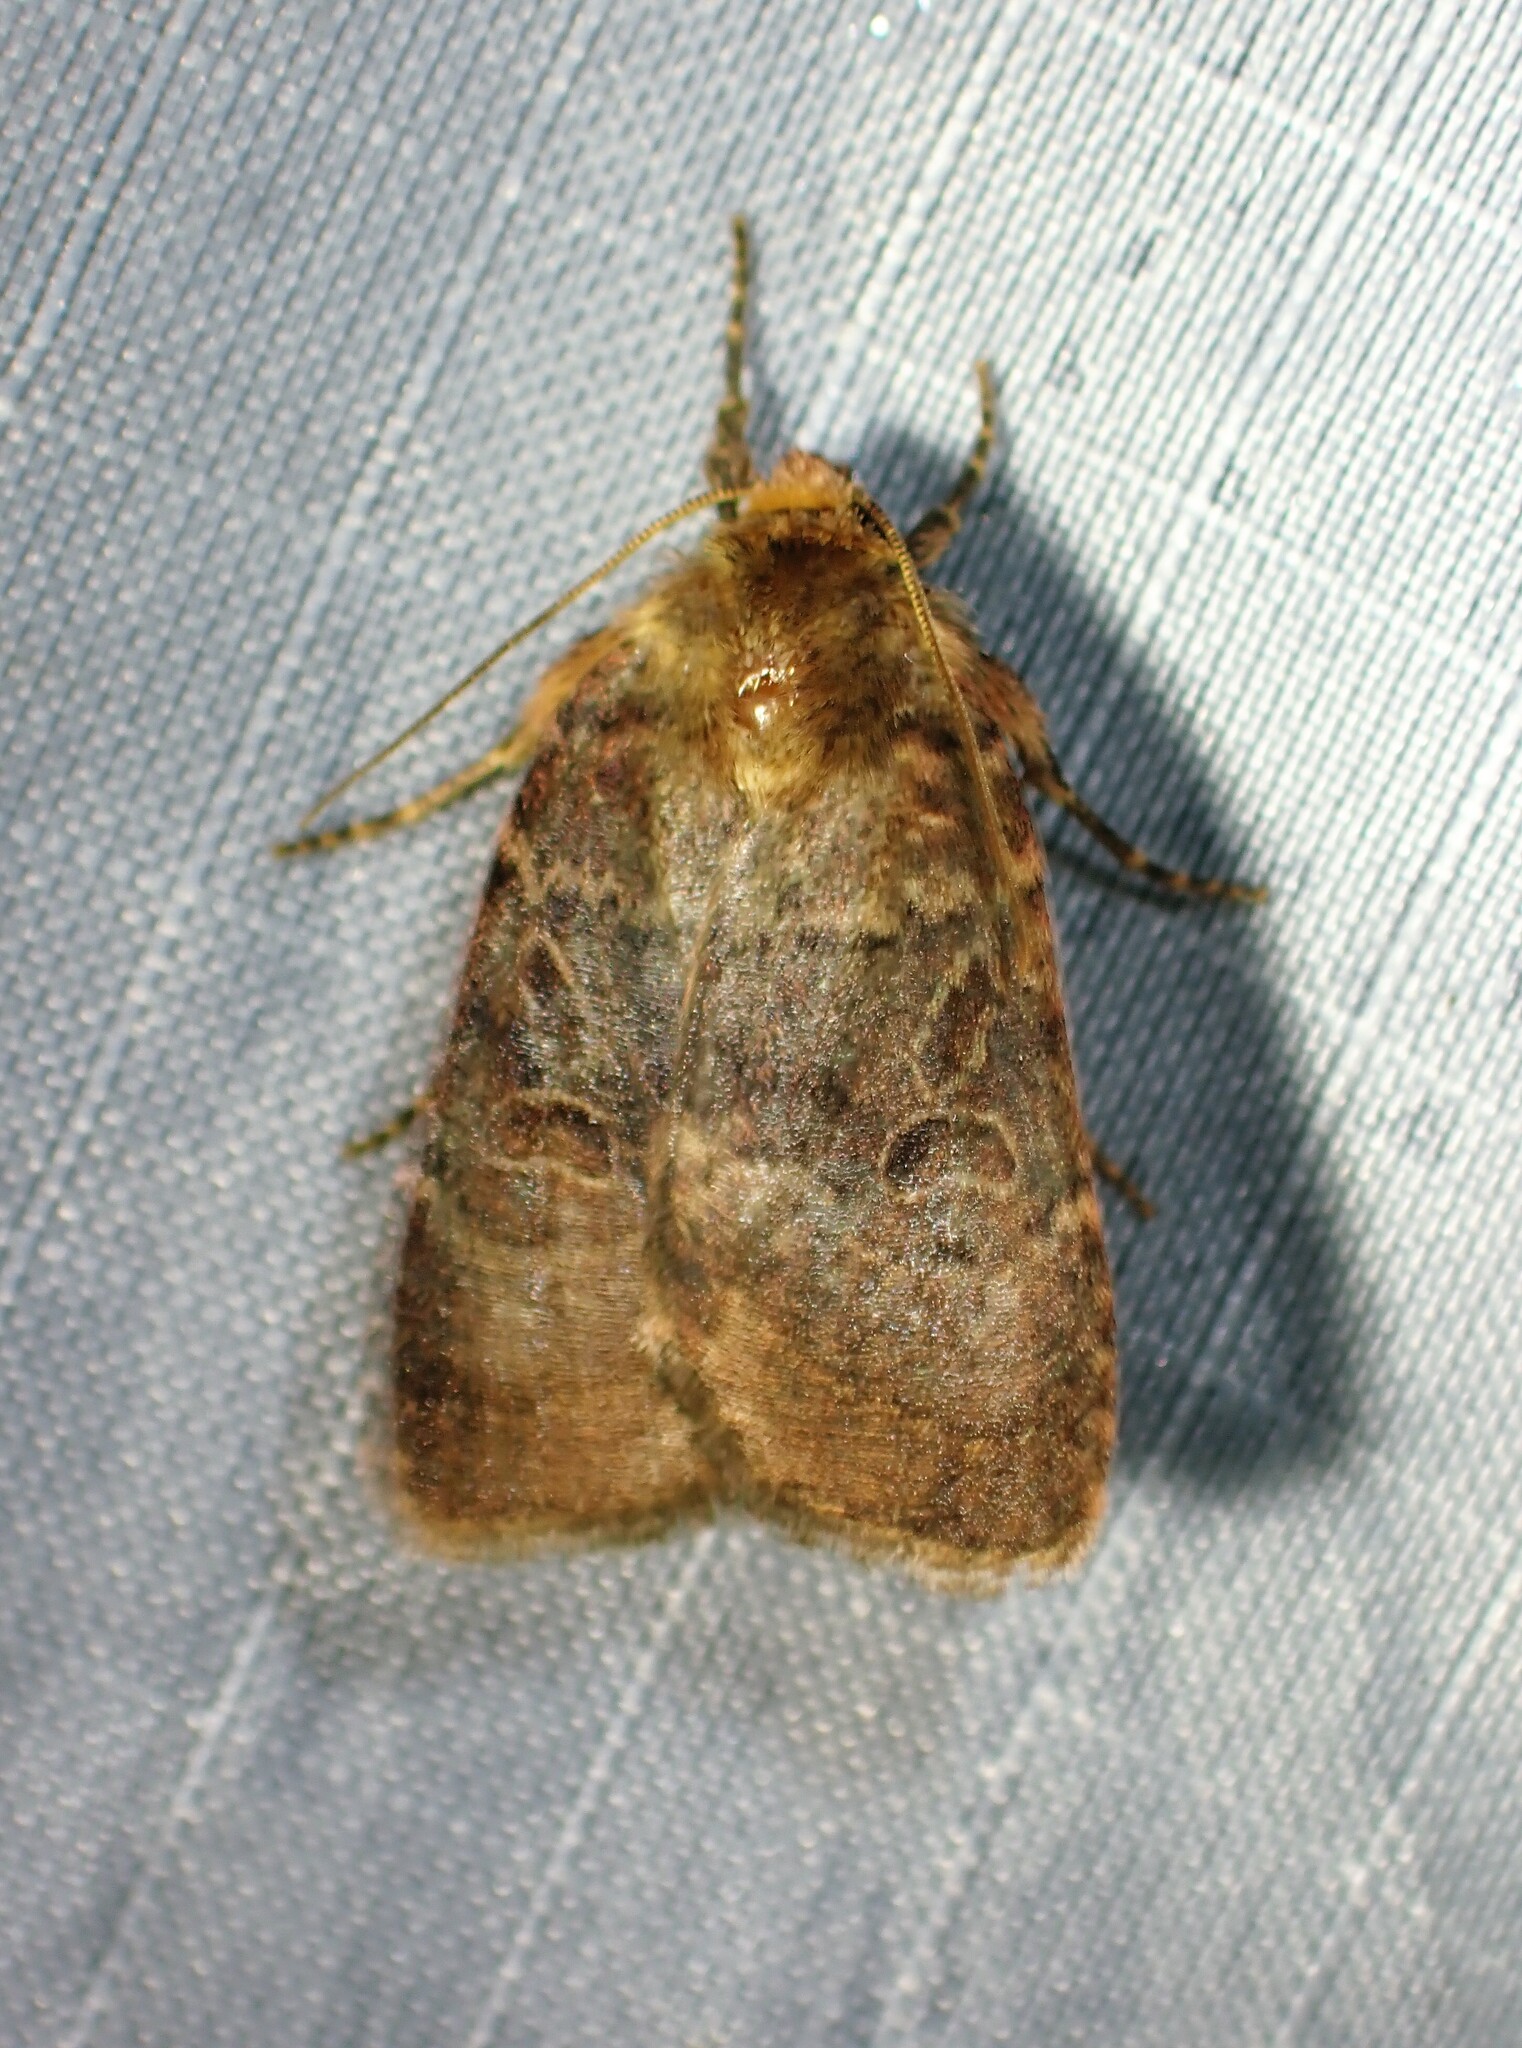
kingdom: Animalia
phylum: Arthropoda
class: Insecta
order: Lepidoptera
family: Noctuidae
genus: Orthodes
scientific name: Orthodes cynica
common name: Cynical quaker
